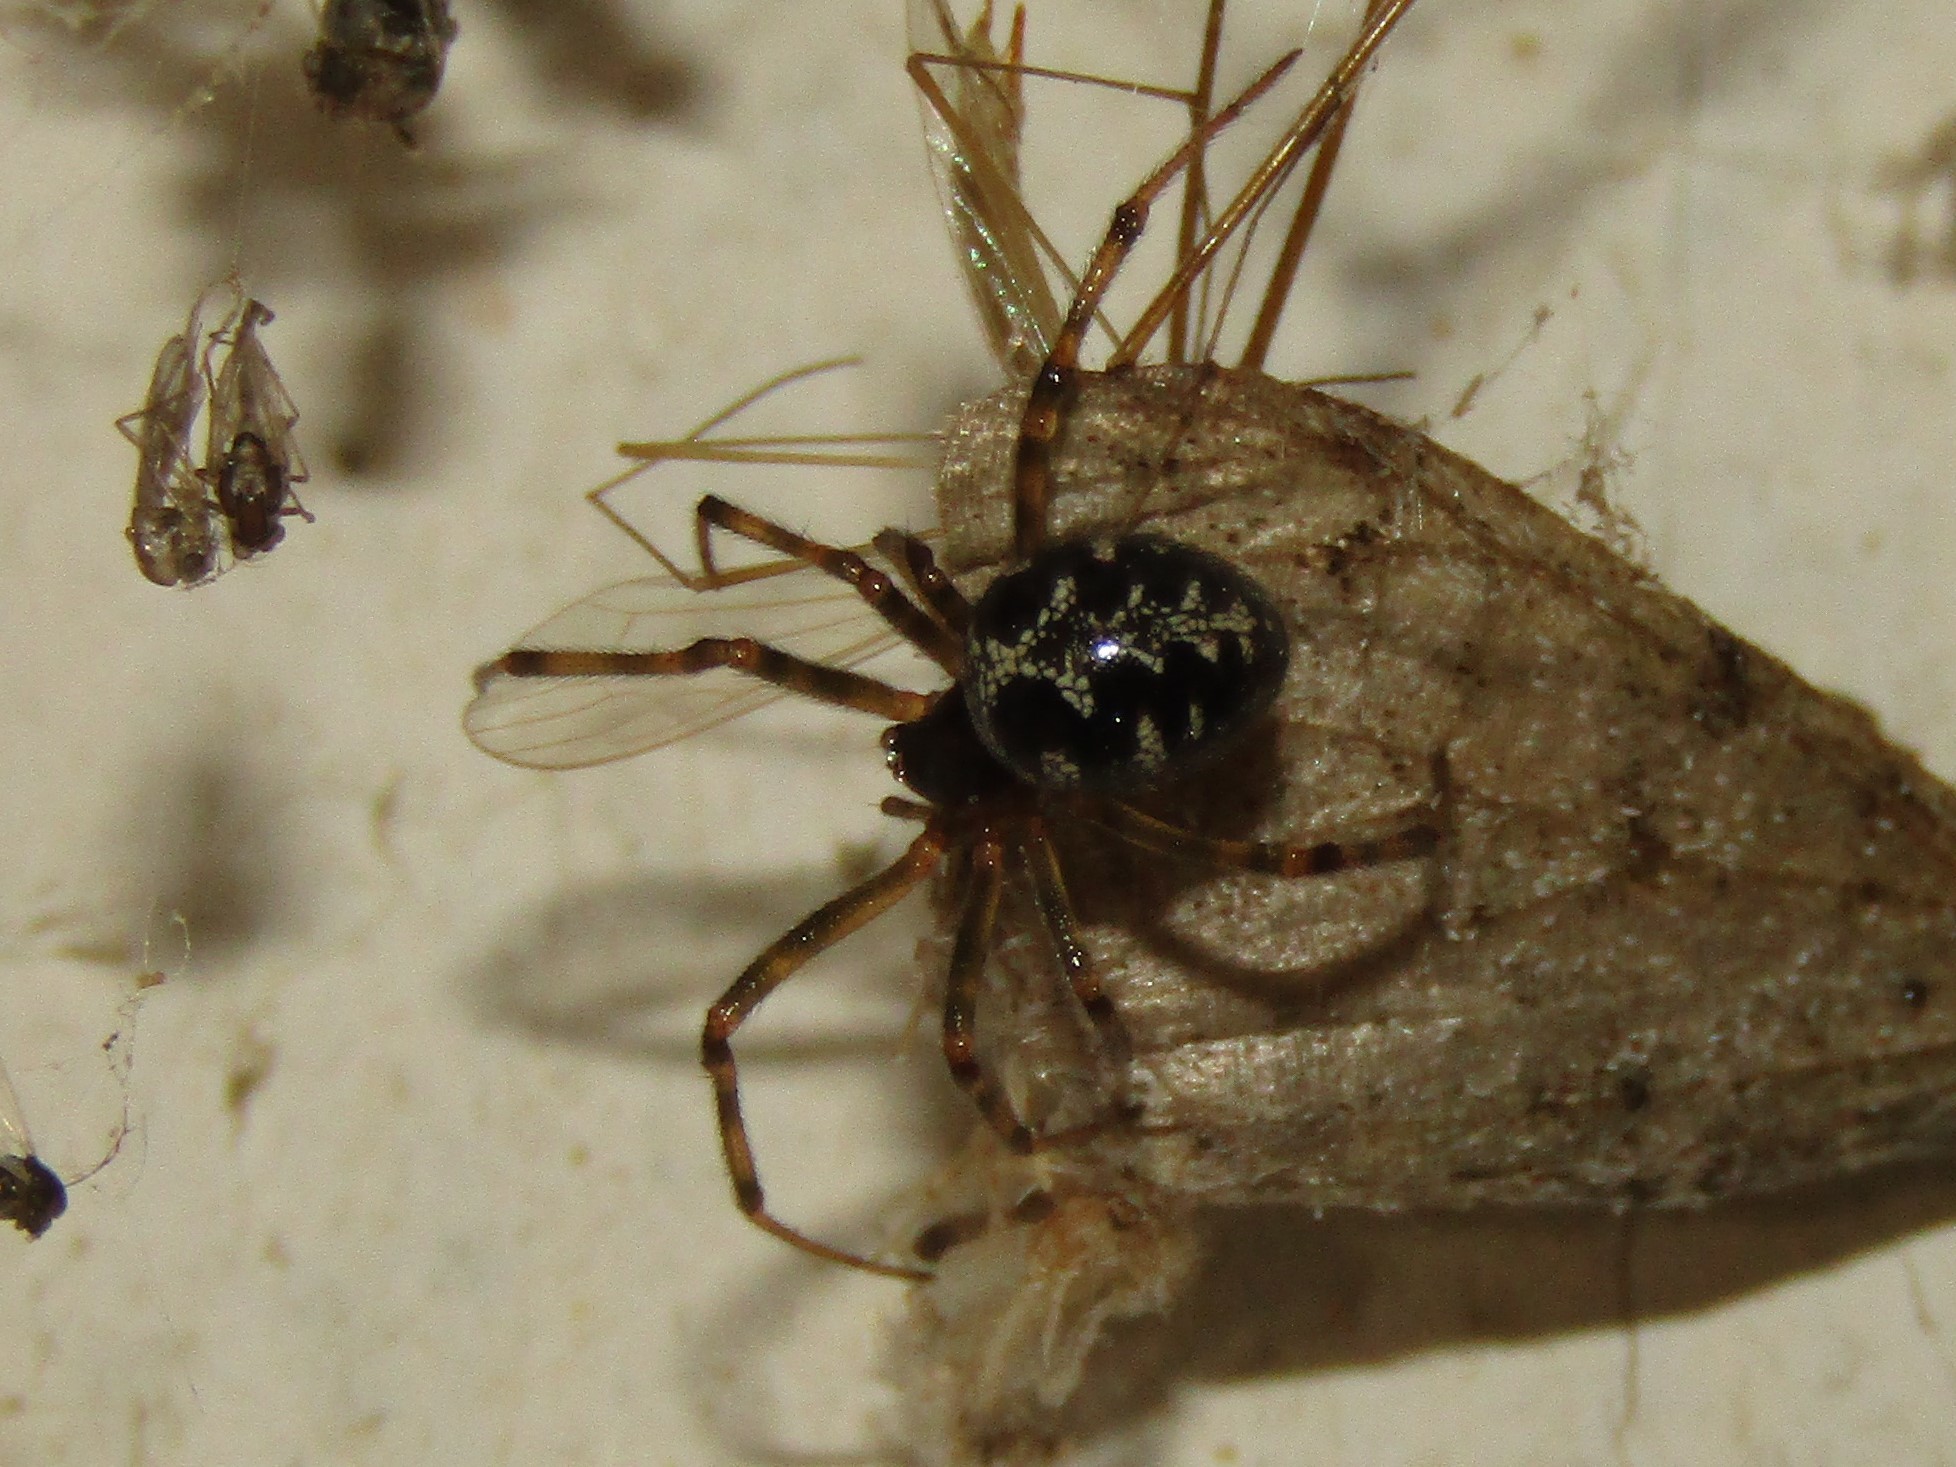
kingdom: Animalia
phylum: Arthropoda
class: Arachnida
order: Araneae
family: Theridiidae
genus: Steatoda
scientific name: Steatoda triangulosa
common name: Triangulate bud spider
